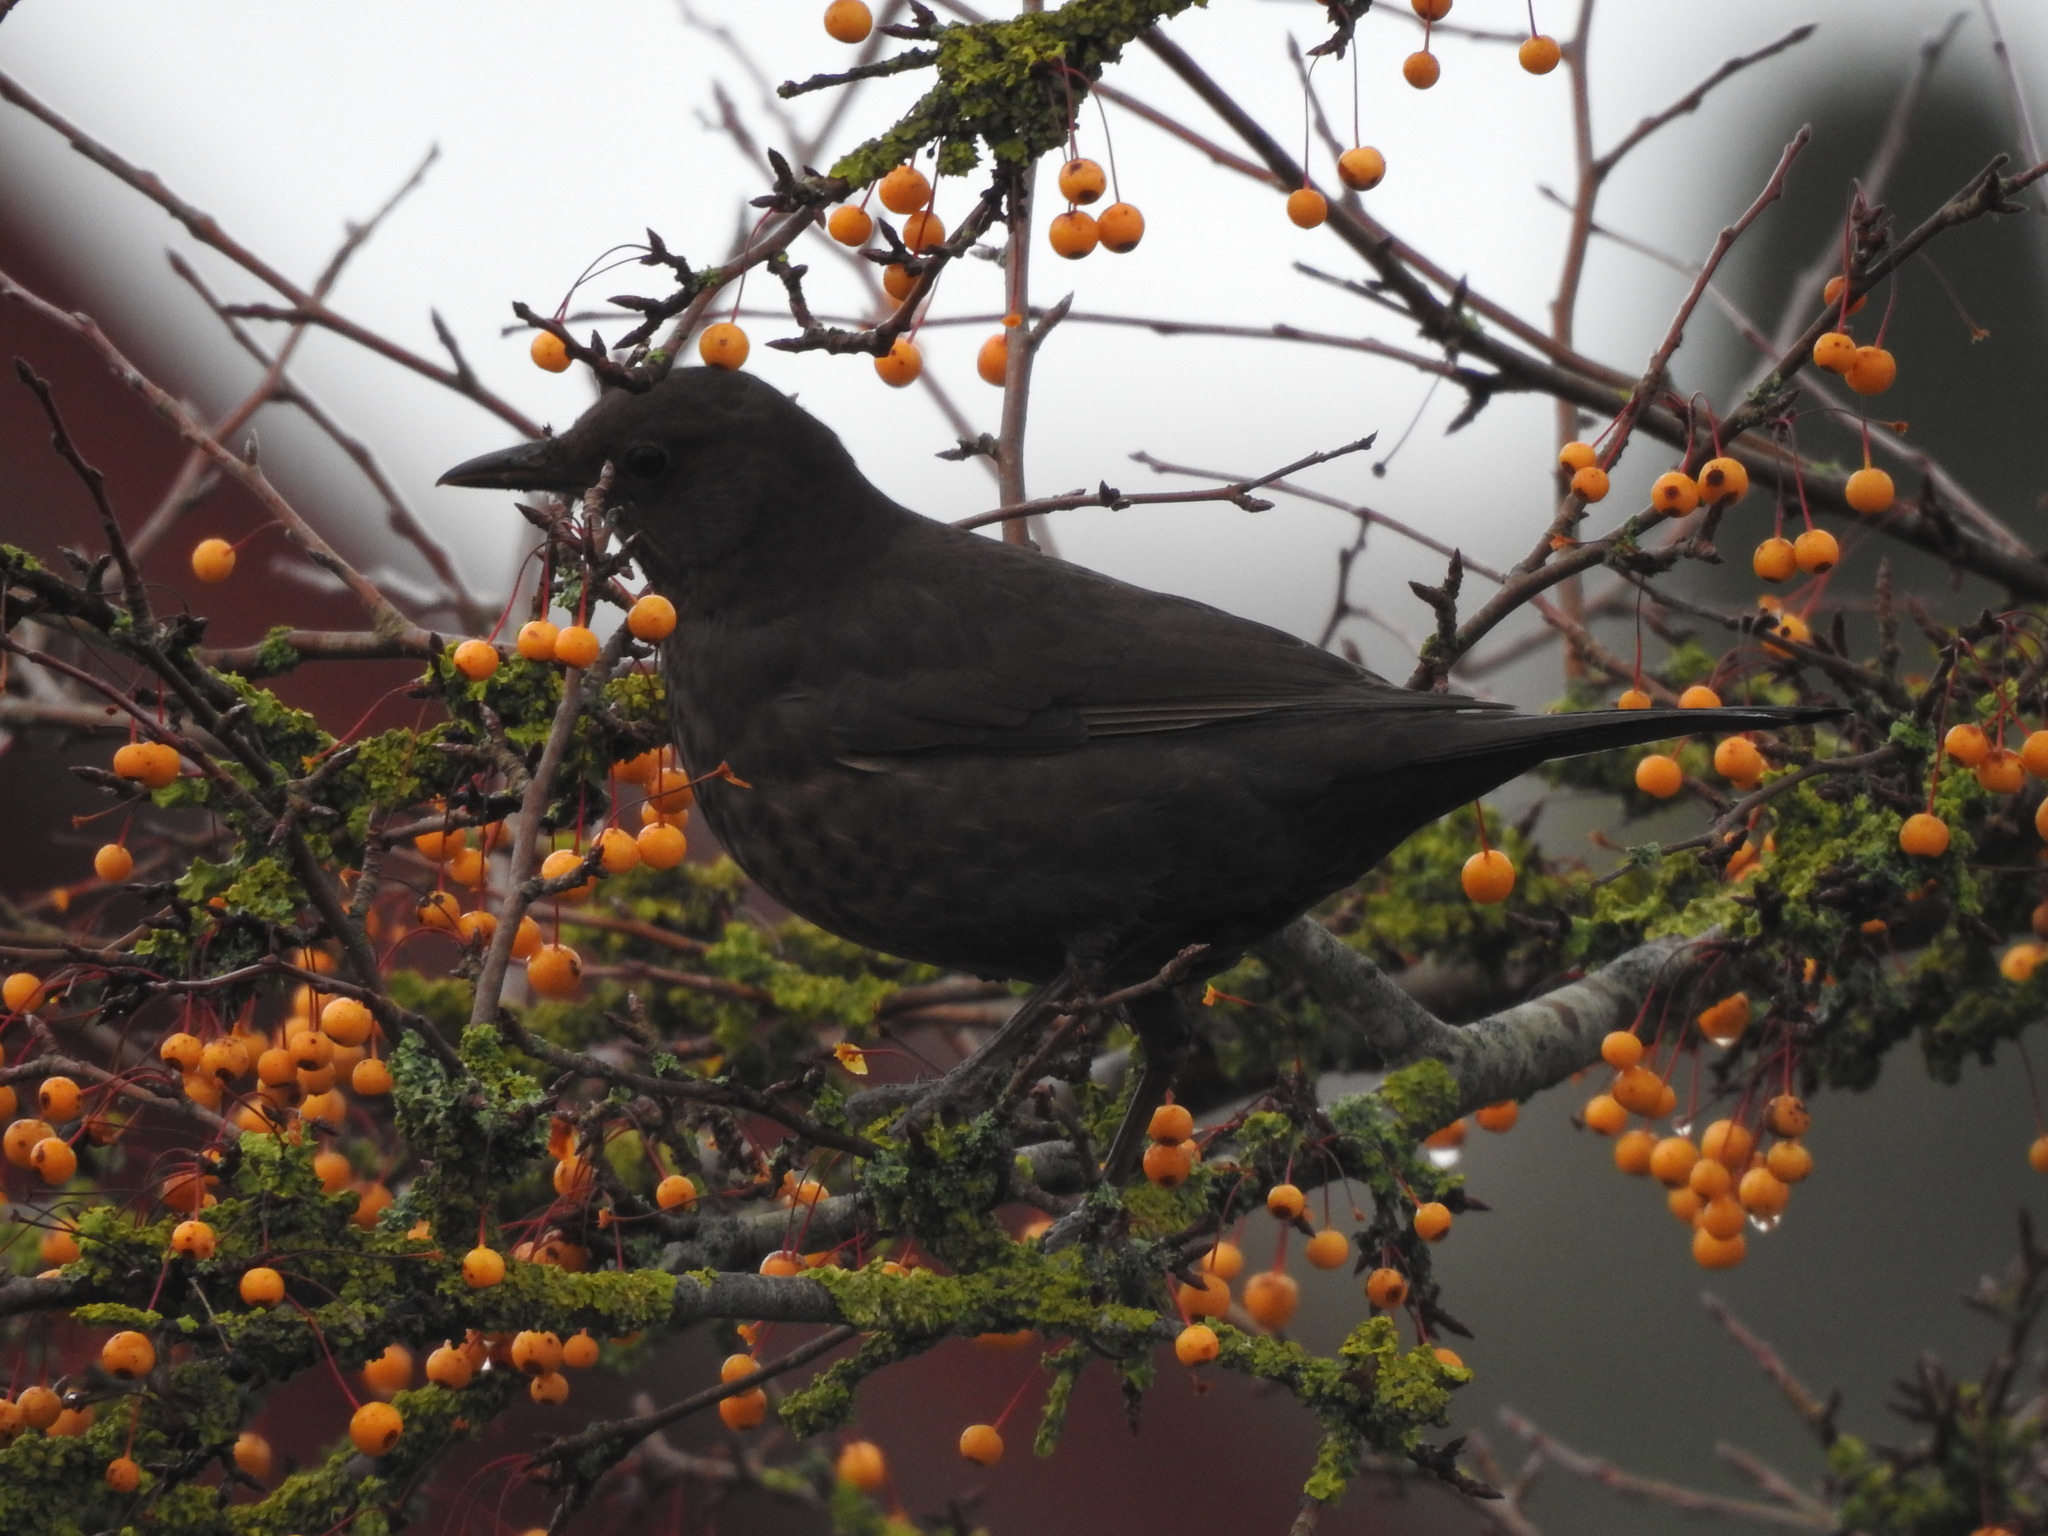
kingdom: Animalia
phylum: Chordata
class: Aves
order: Passeriformes
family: Turdidae
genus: Turdus
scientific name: Turdus merula
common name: Common blackbird
